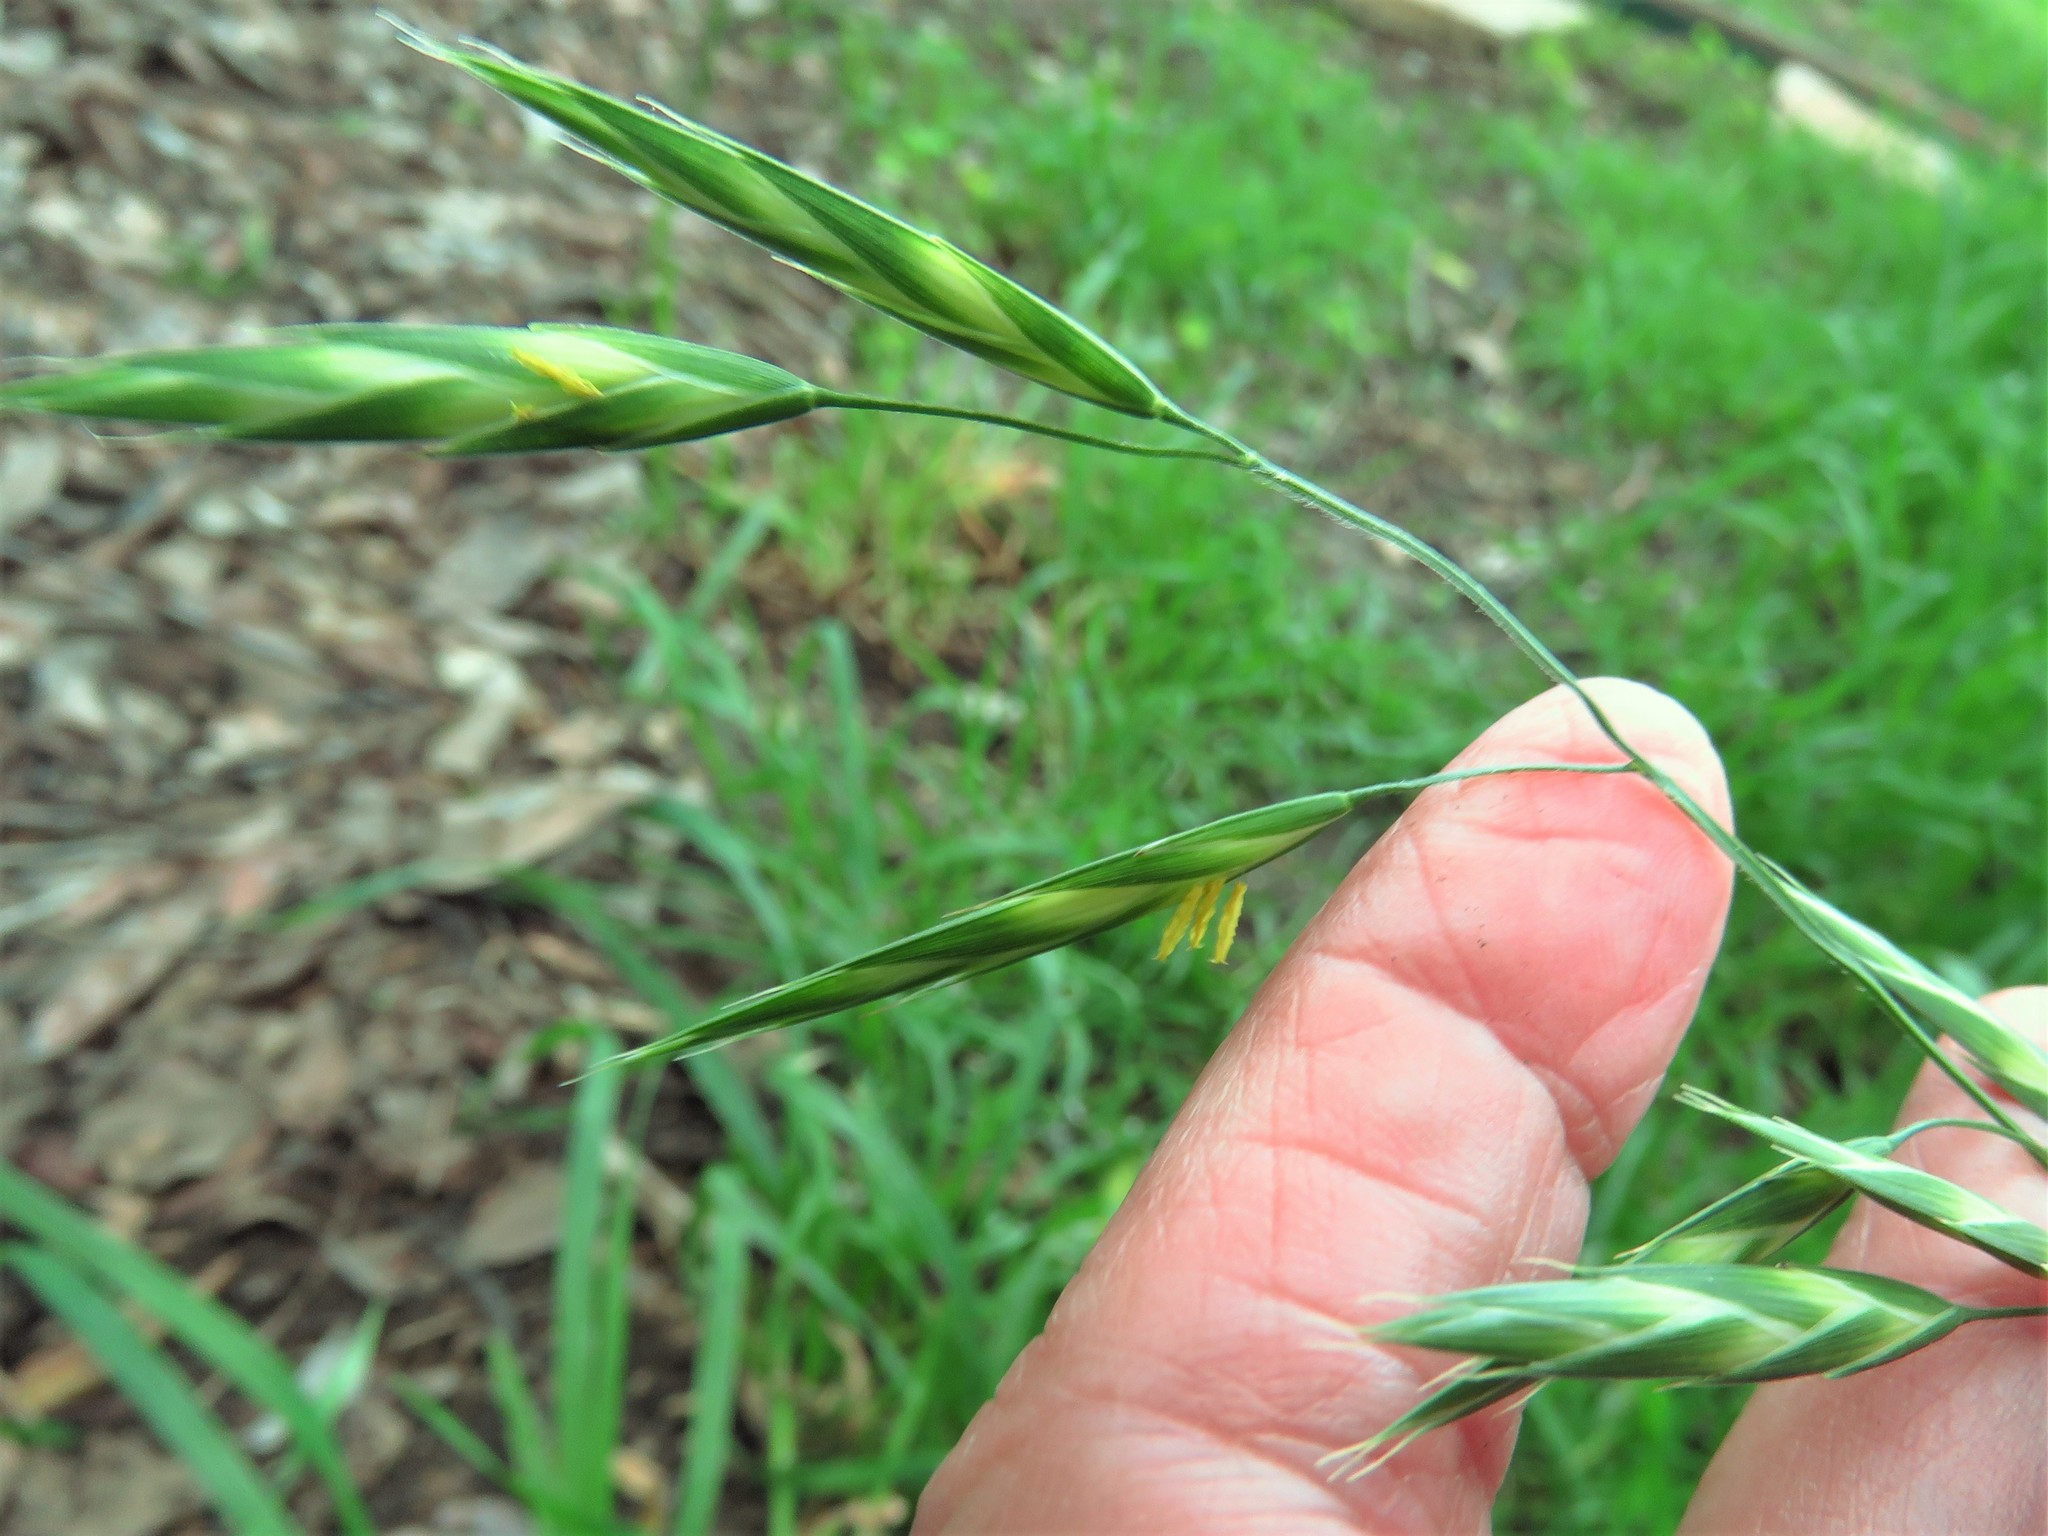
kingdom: Plantae
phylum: Tracheophyta
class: Liliopsida
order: Poales
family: Poaceae
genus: Bromus
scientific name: Bromus catharticus
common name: Rescuegrass
